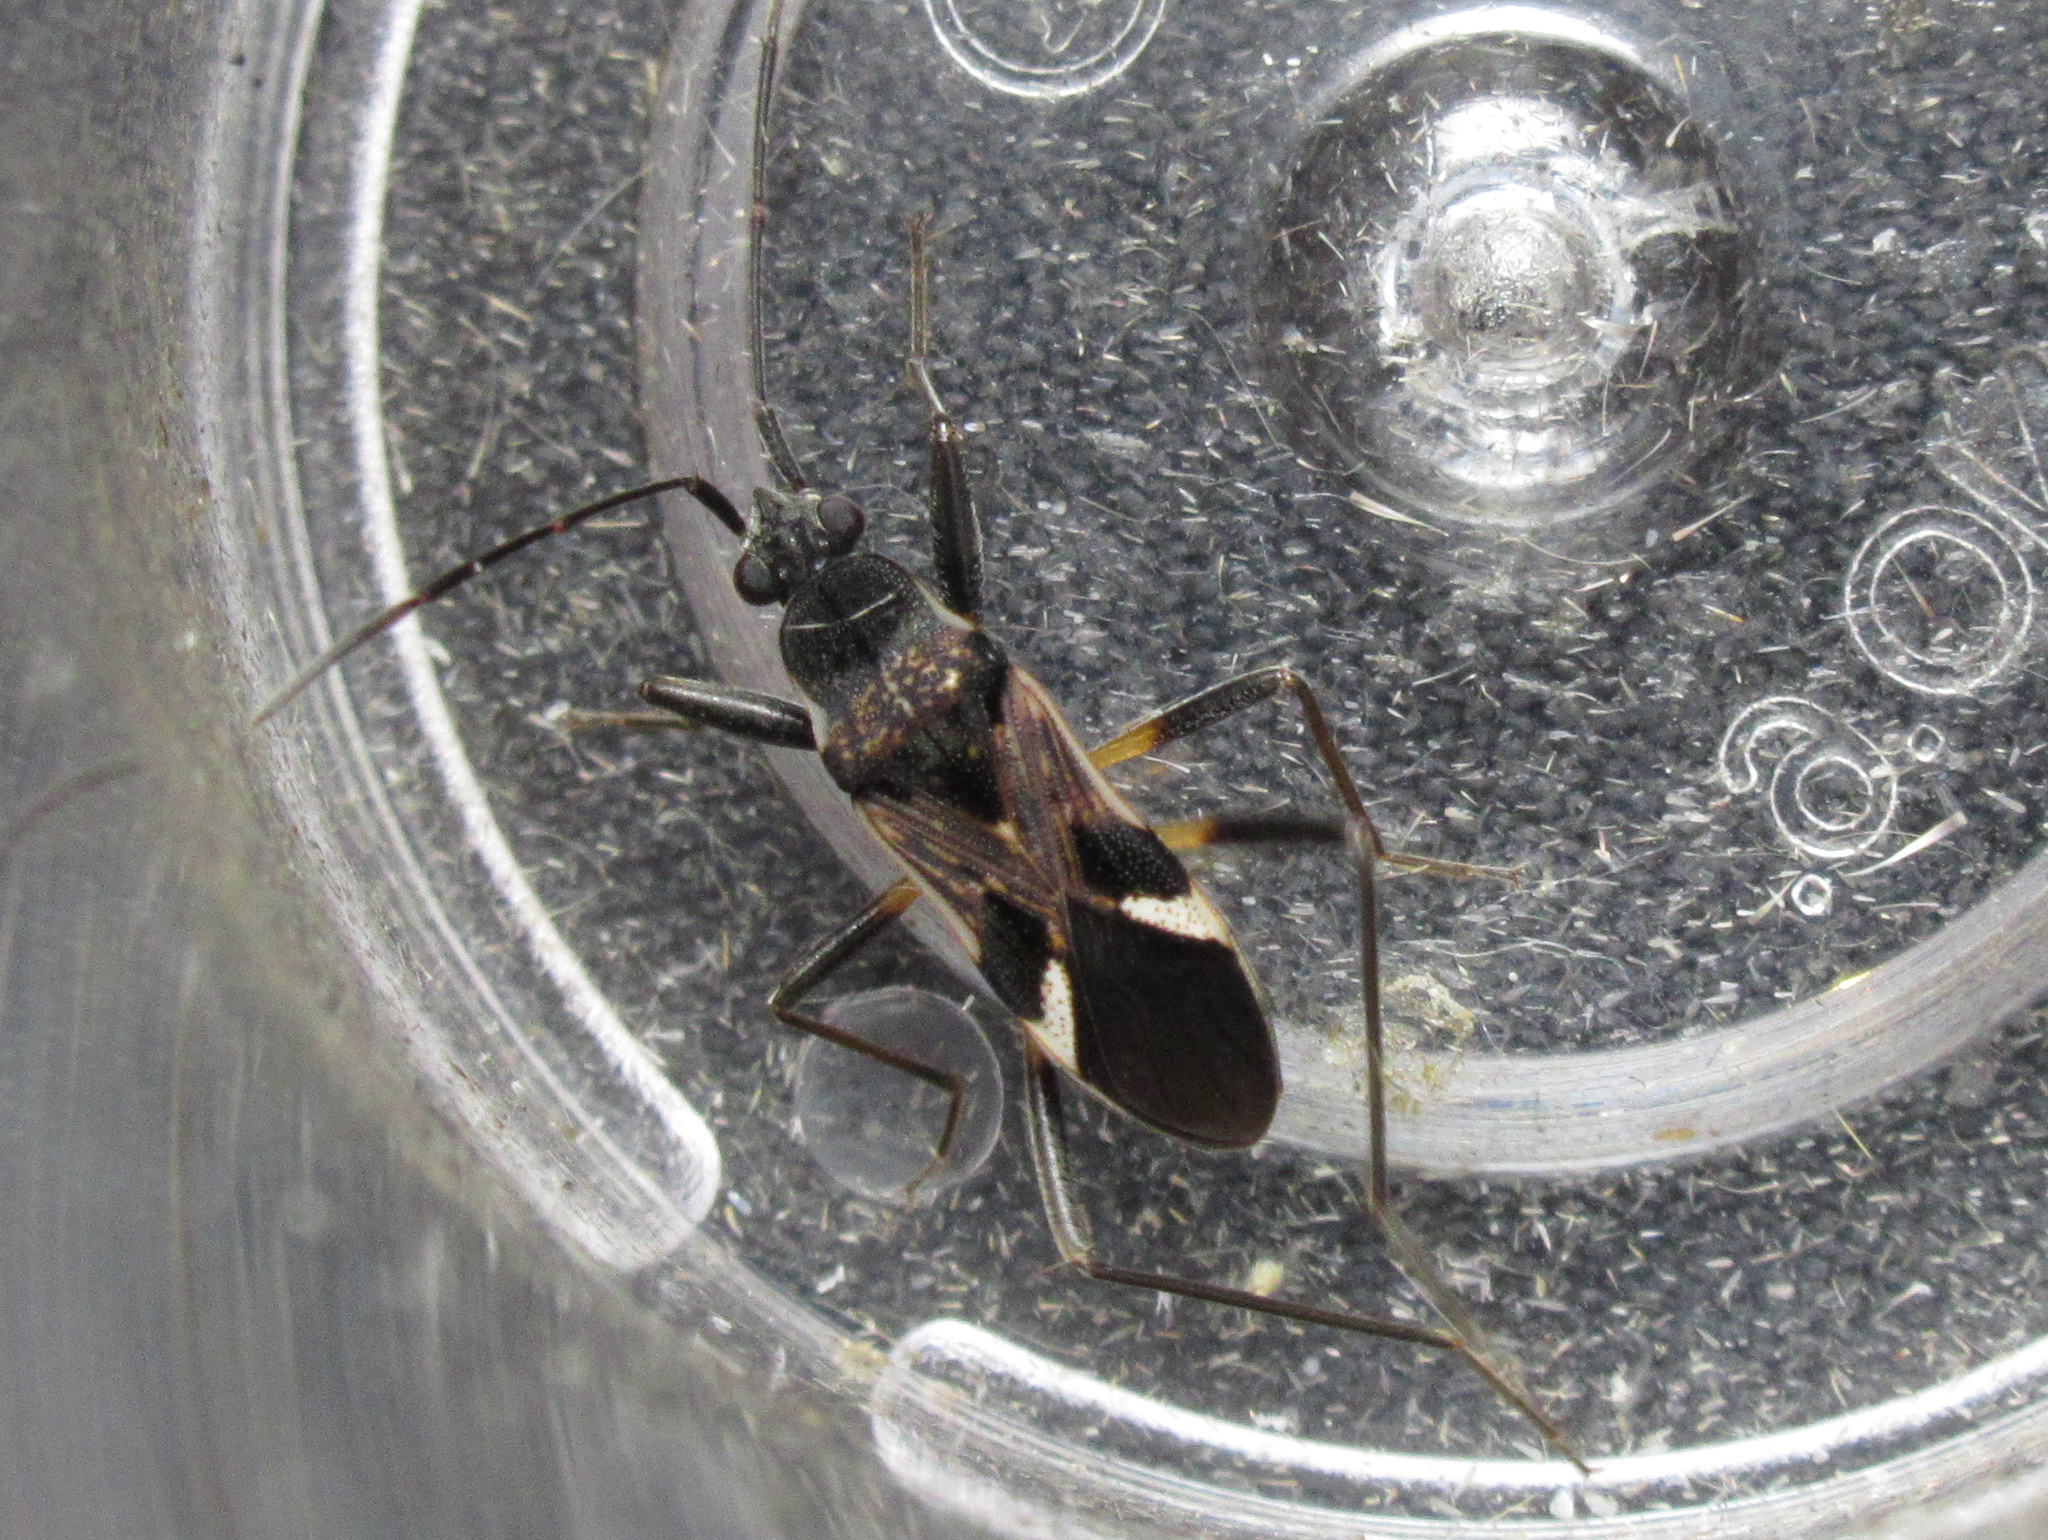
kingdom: Animalia
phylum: Arthropoda
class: Insecta
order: Hemiptera
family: Rhyparochromidae
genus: Dieuches
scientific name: Dieuches notatus
